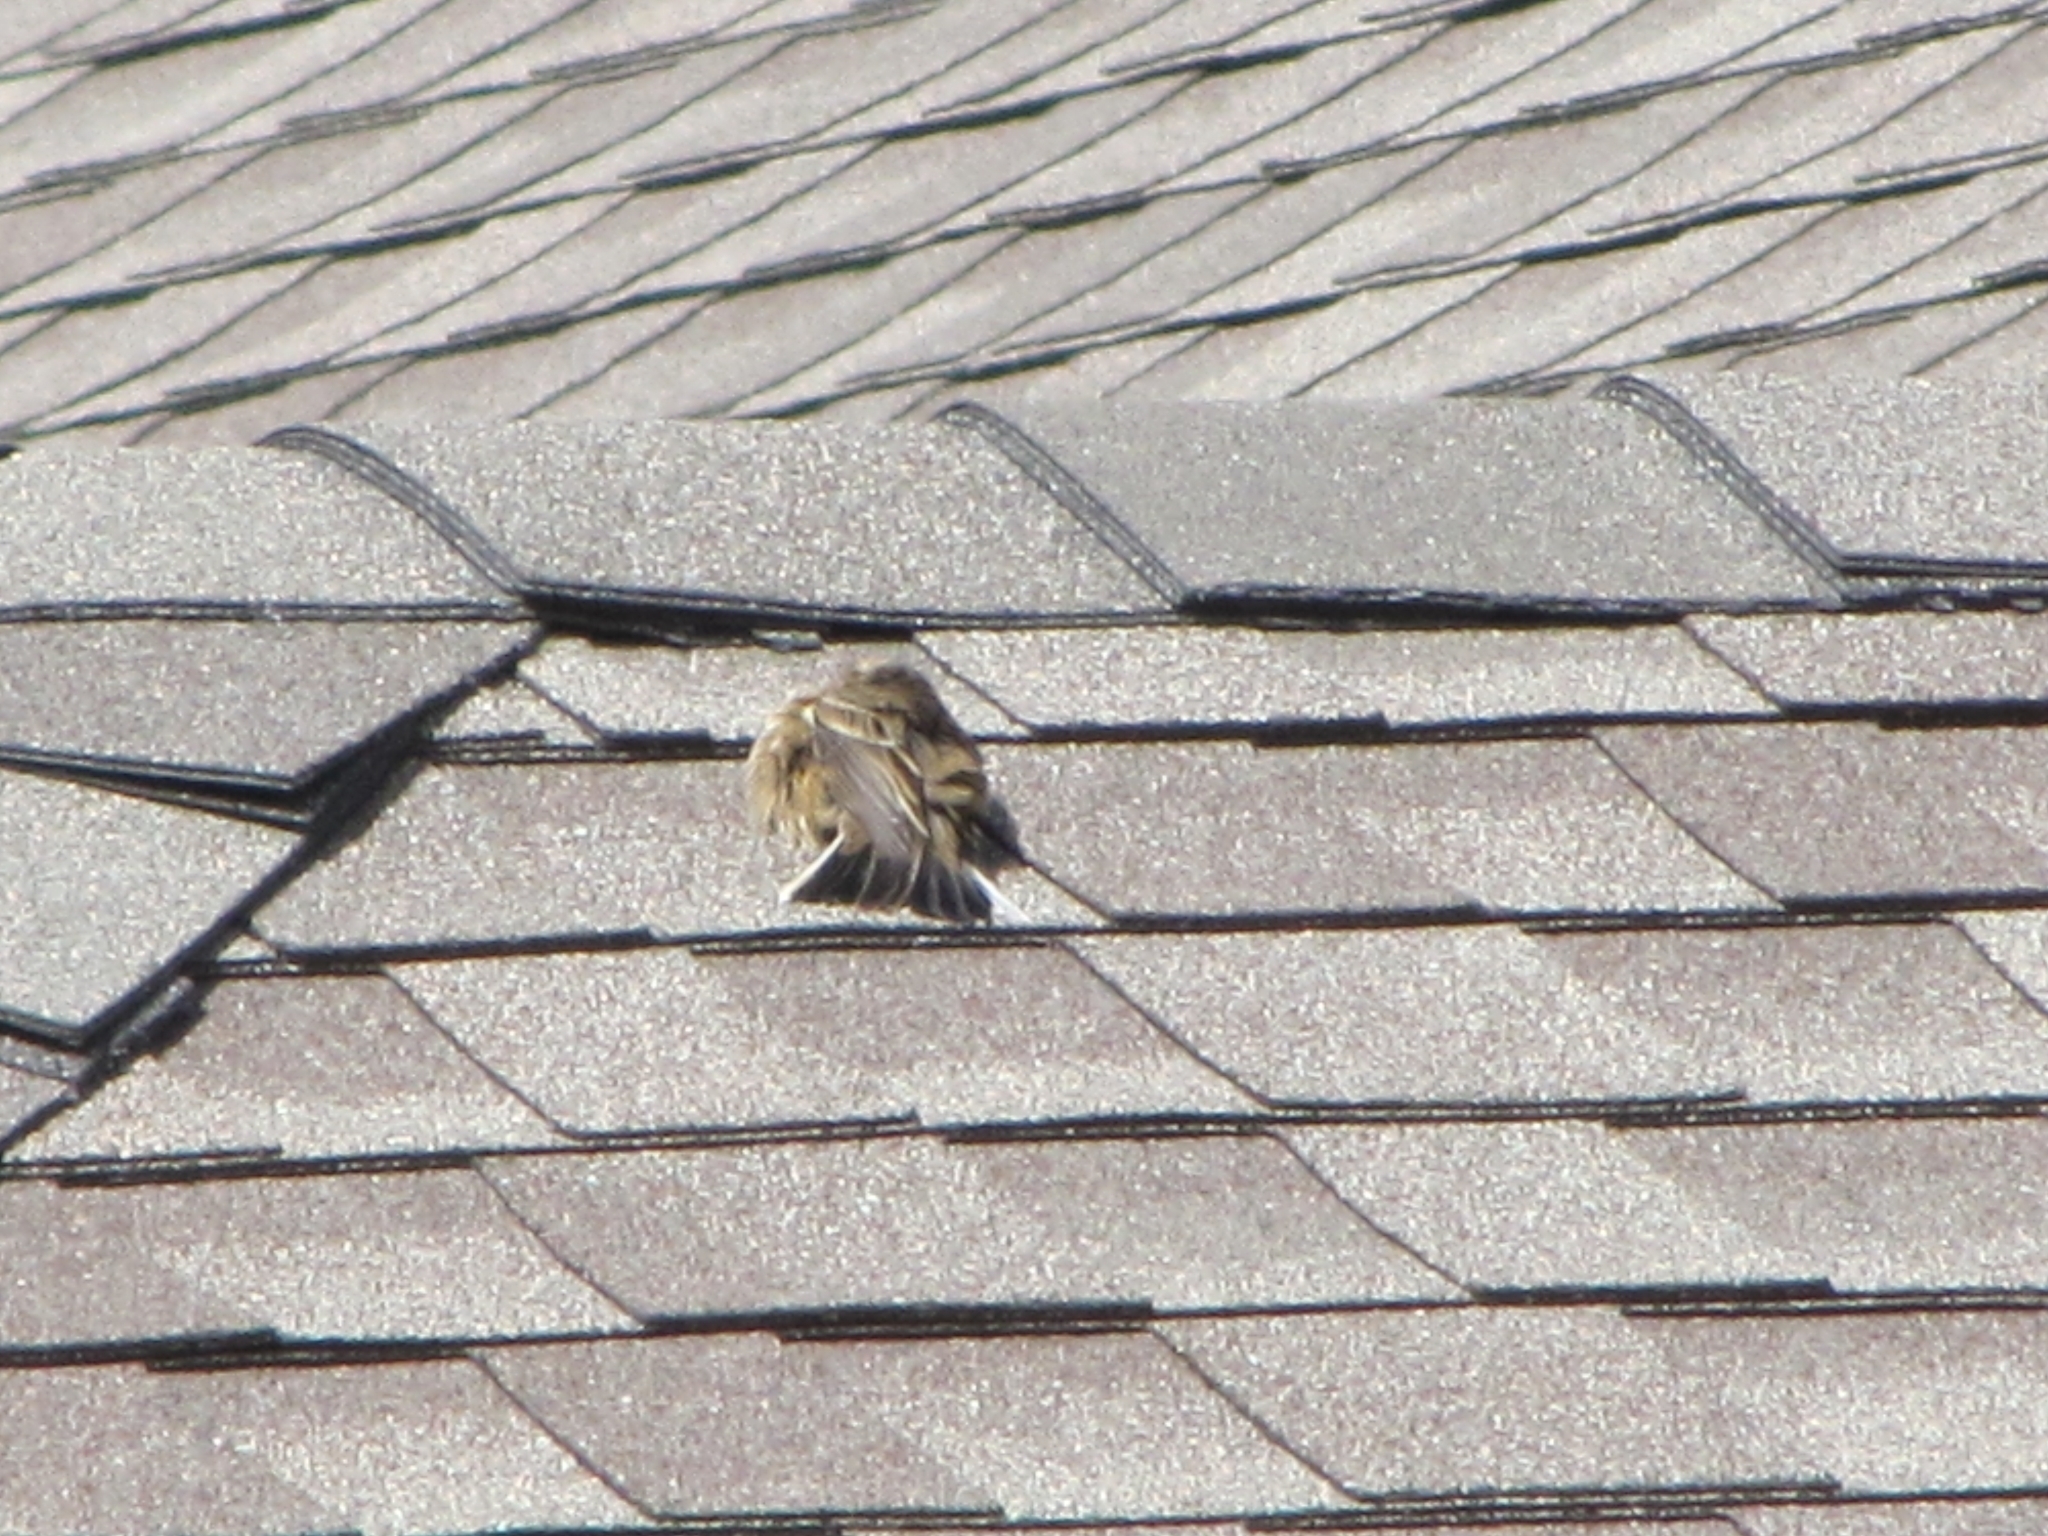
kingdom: Animalia
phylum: Chordata
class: Aves
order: Passeriformes
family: Motacillidae
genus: Anthus
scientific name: Anthus rubescens
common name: Buff-bellied pipit
